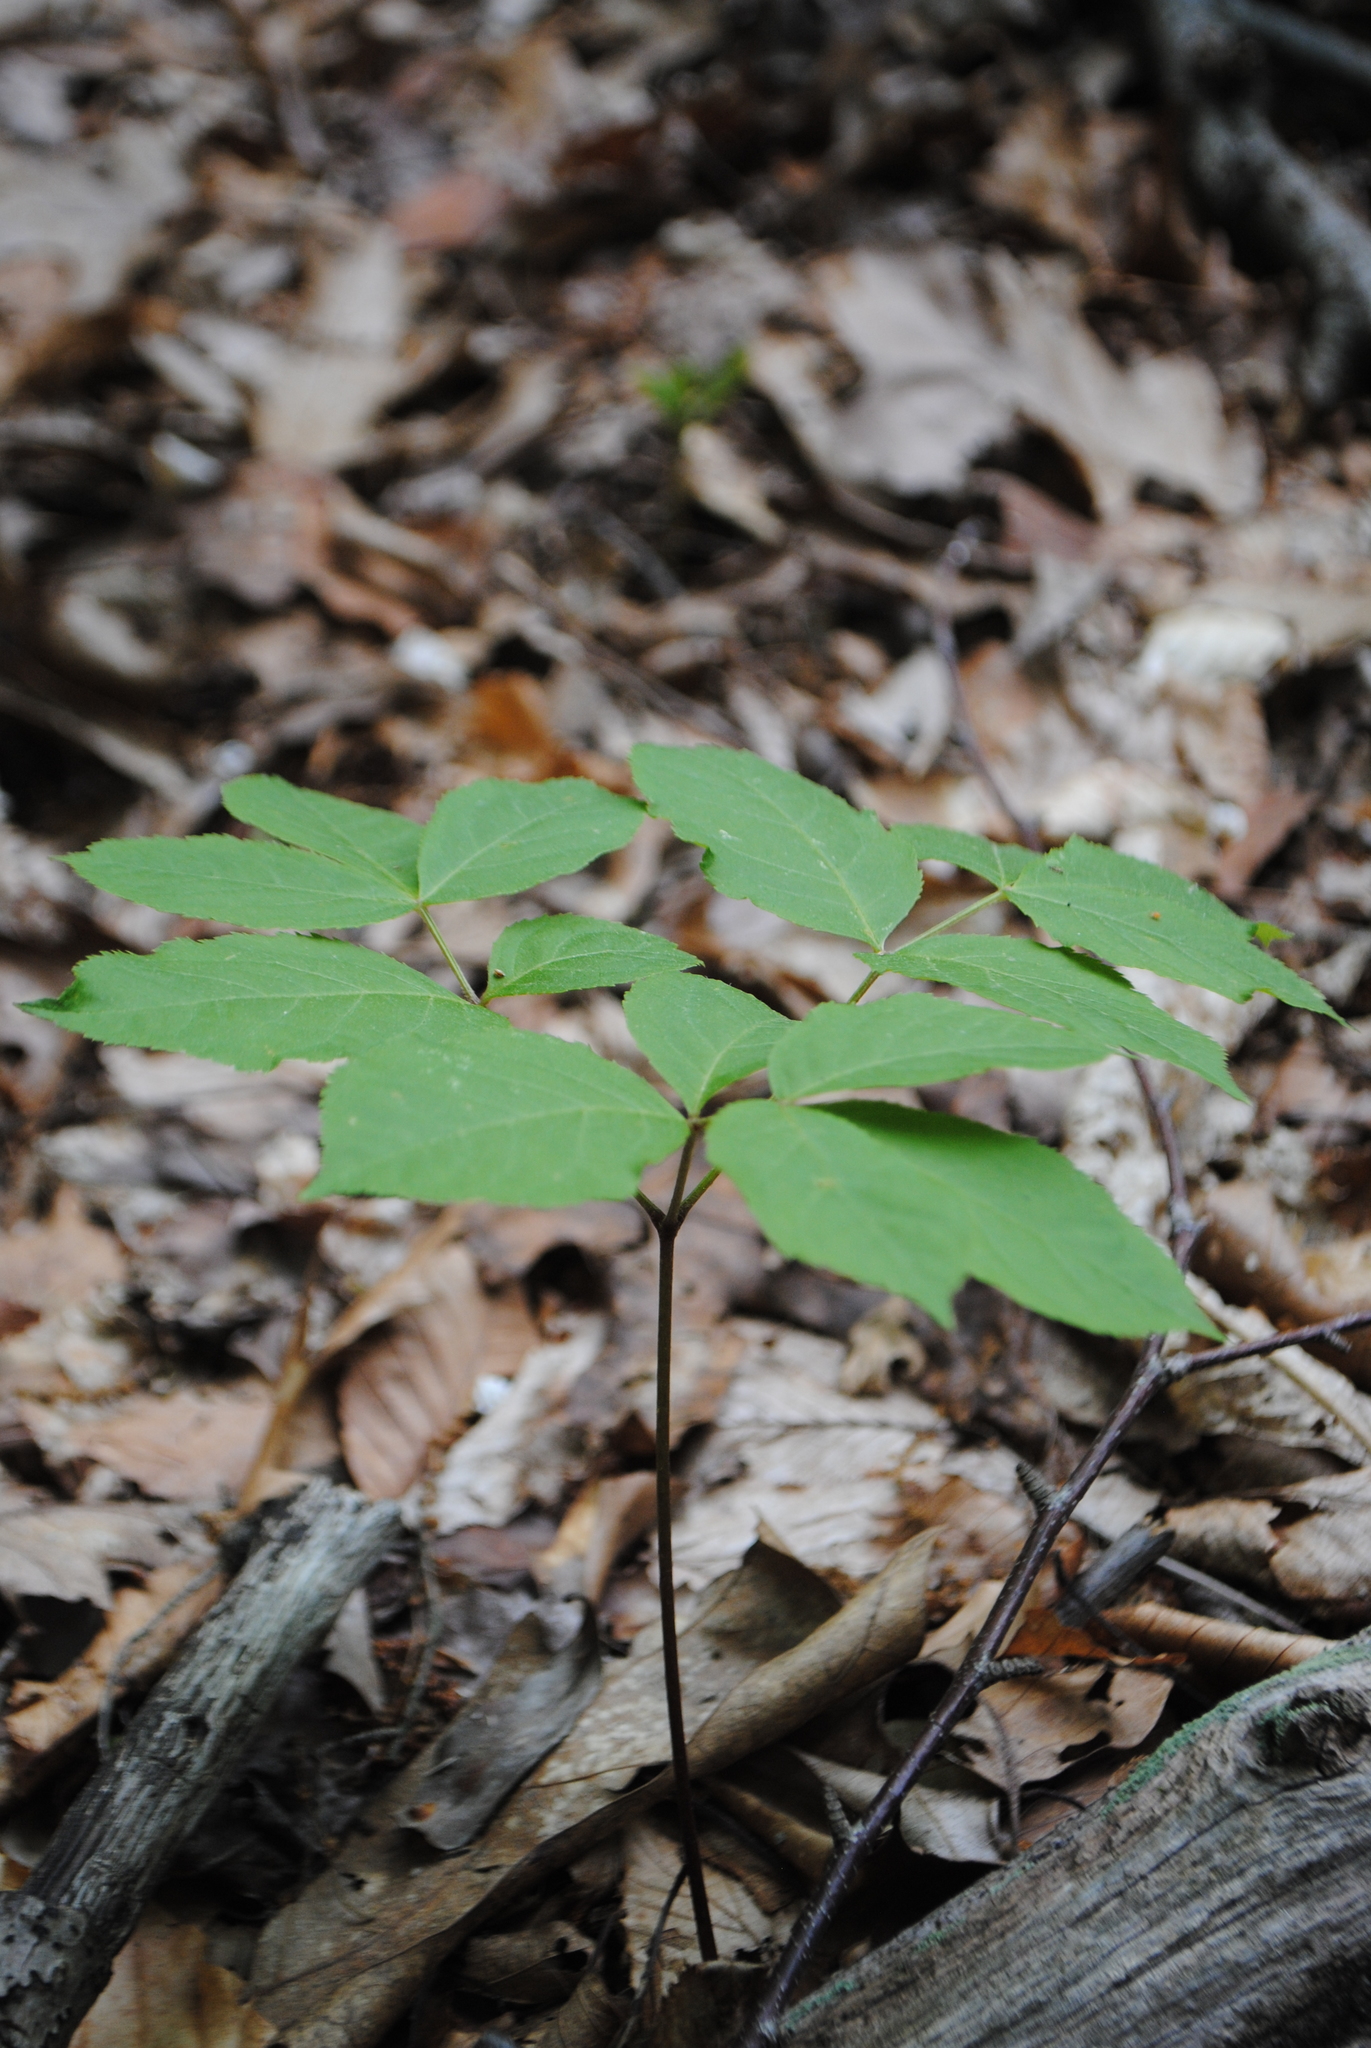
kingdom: Plantae
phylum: Tracheophyta
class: Magnoliopsida
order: Apiales
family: Araliaceae
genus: Aralia
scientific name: Aralia nudicaulis
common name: Wild sarsaparilla
